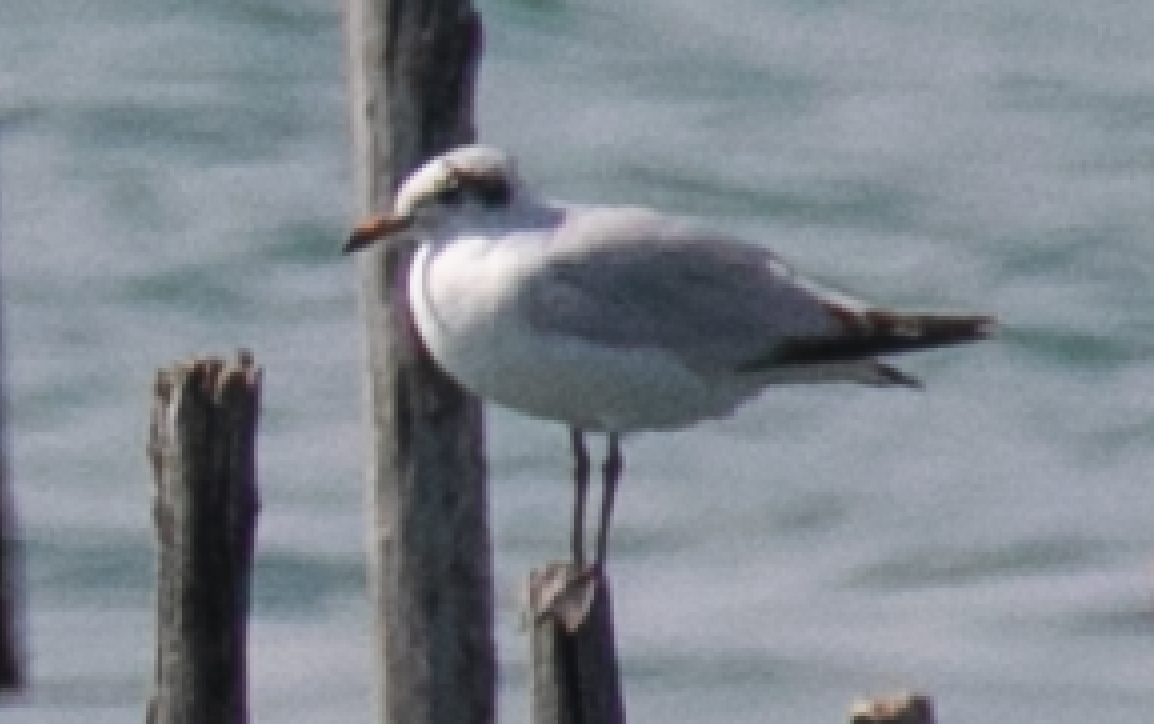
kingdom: Animalia
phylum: Chordata
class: Aves
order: Charadriiformes
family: Laridae
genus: Ichthyaetus
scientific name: Ichthyaetus melanocephalus
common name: Mediterranean gull
